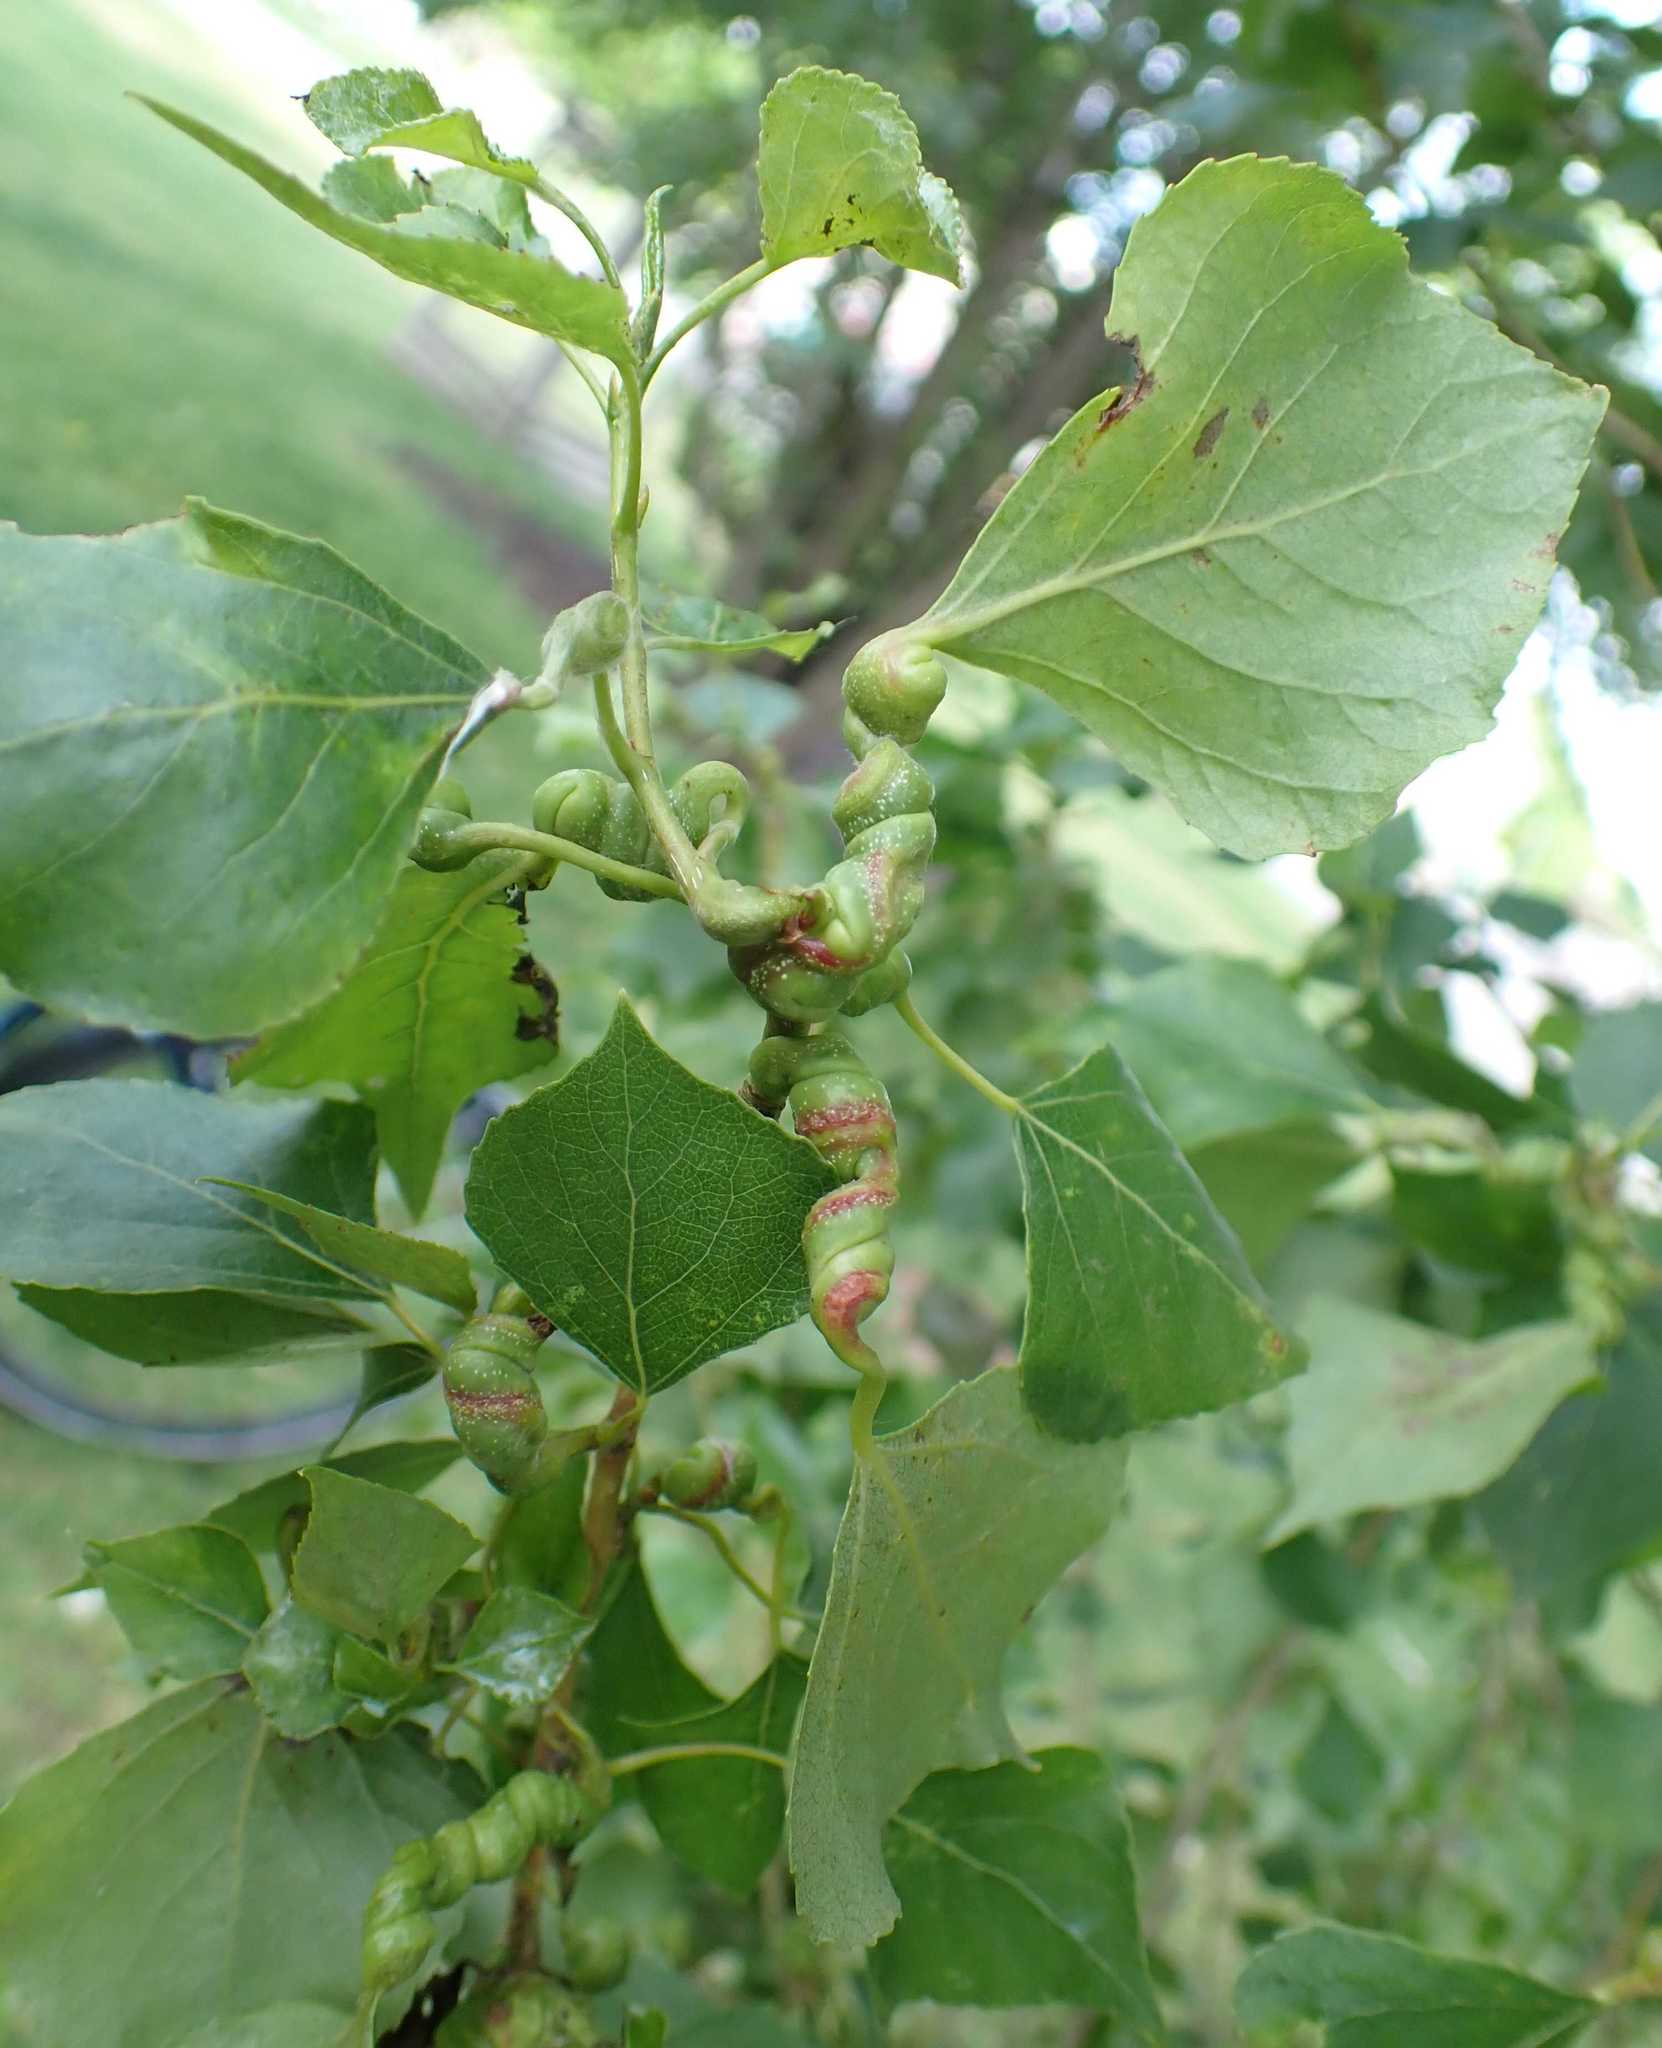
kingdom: Animalia
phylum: Arthropoda
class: Insecta
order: Hemiptera
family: Aphididae
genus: Pemphigus
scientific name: Pemphigus spyrothecae
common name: Aphid
